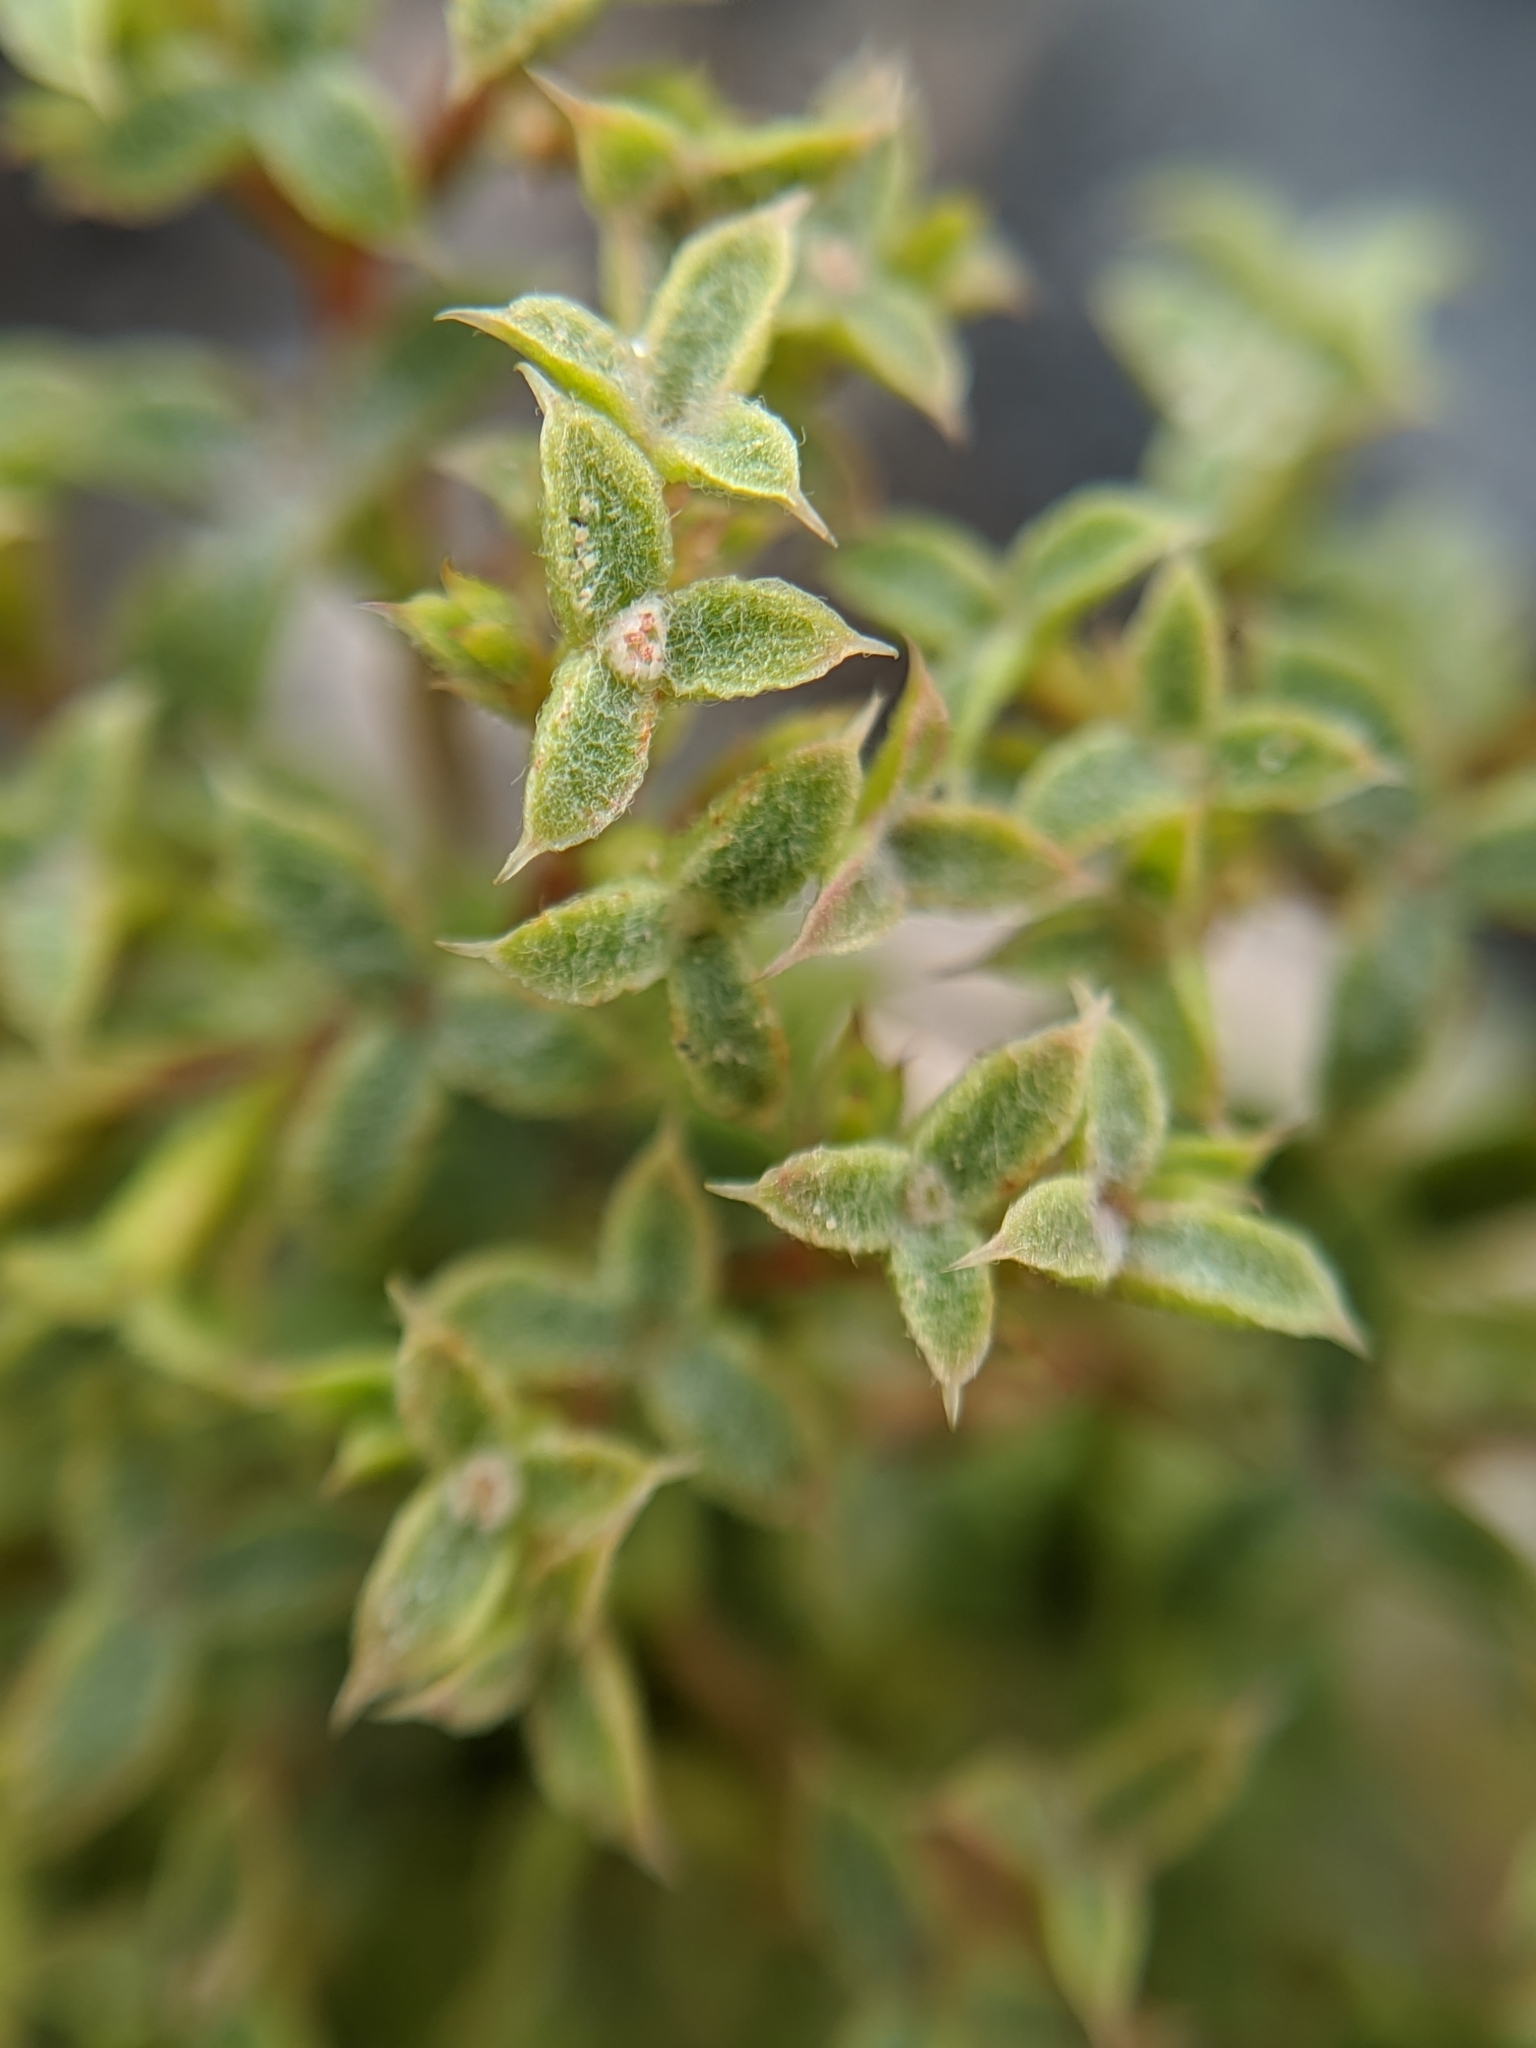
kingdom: Plantae
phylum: Tracheophyta
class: Magnoliopsida
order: Caryophyllales
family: Polygonaceae
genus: Chorizanthe
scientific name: Chorizanthe corrugata
